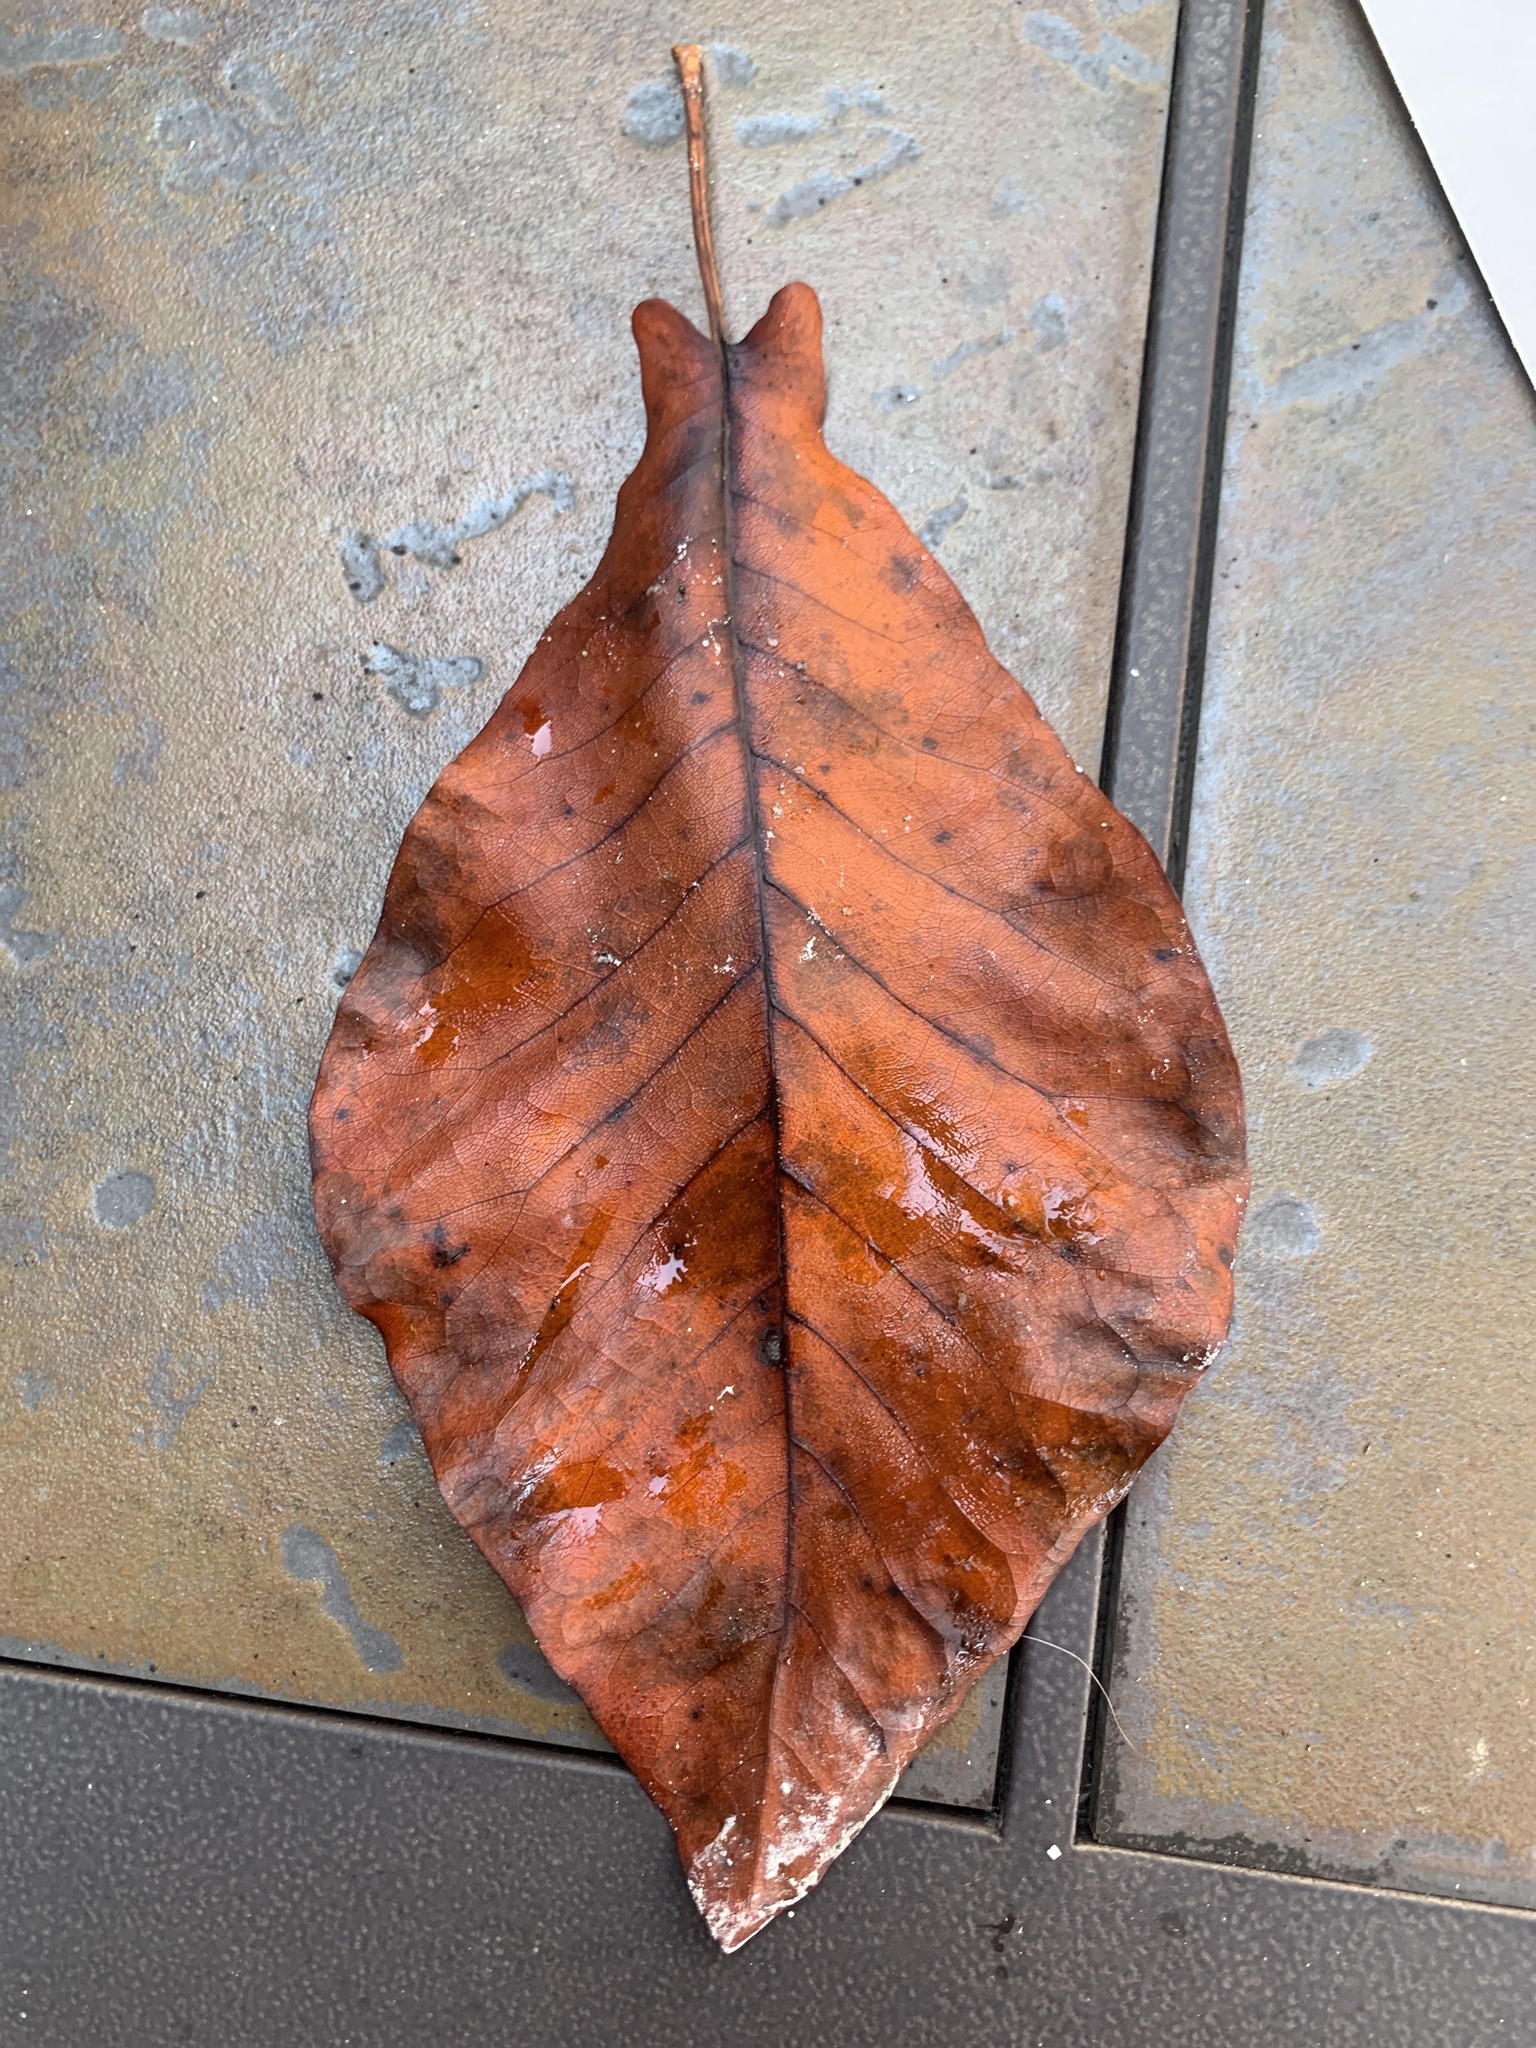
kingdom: Plantae
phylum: Tracheophyta
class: Magnoliopsida
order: Magnoliales
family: Magnoliaceae
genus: Magnolia
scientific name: Magnolia fraseri
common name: Fraser's magnolia
